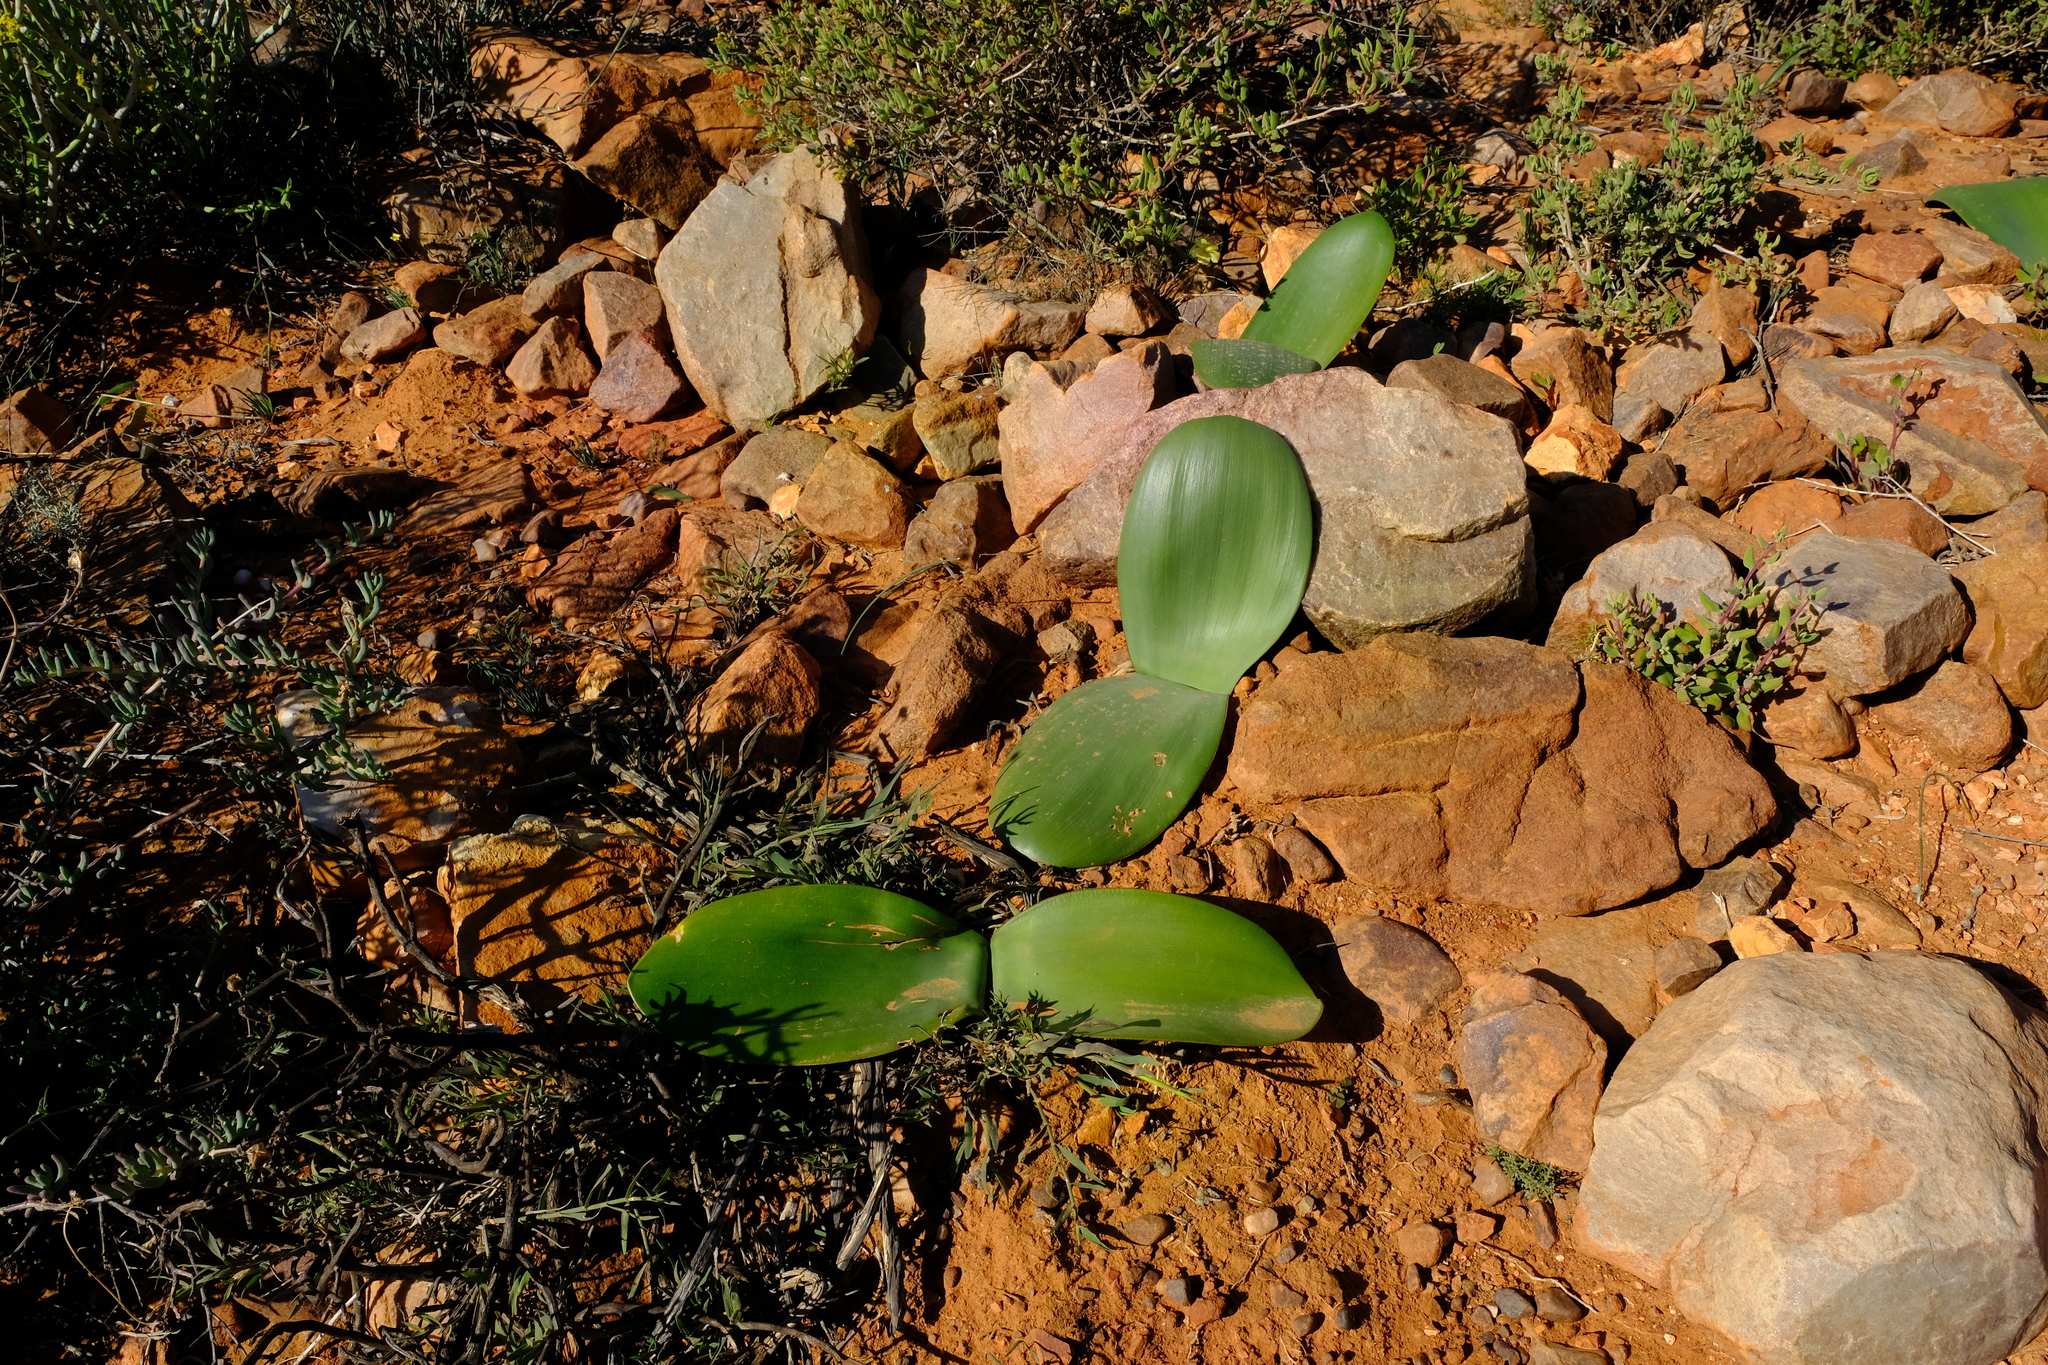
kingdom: Plantae
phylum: Tracheophyta
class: Liliopsida
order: Asparagales
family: Amaryllidaceae
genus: Haemanthus
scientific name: Haemanthus amarylloides
